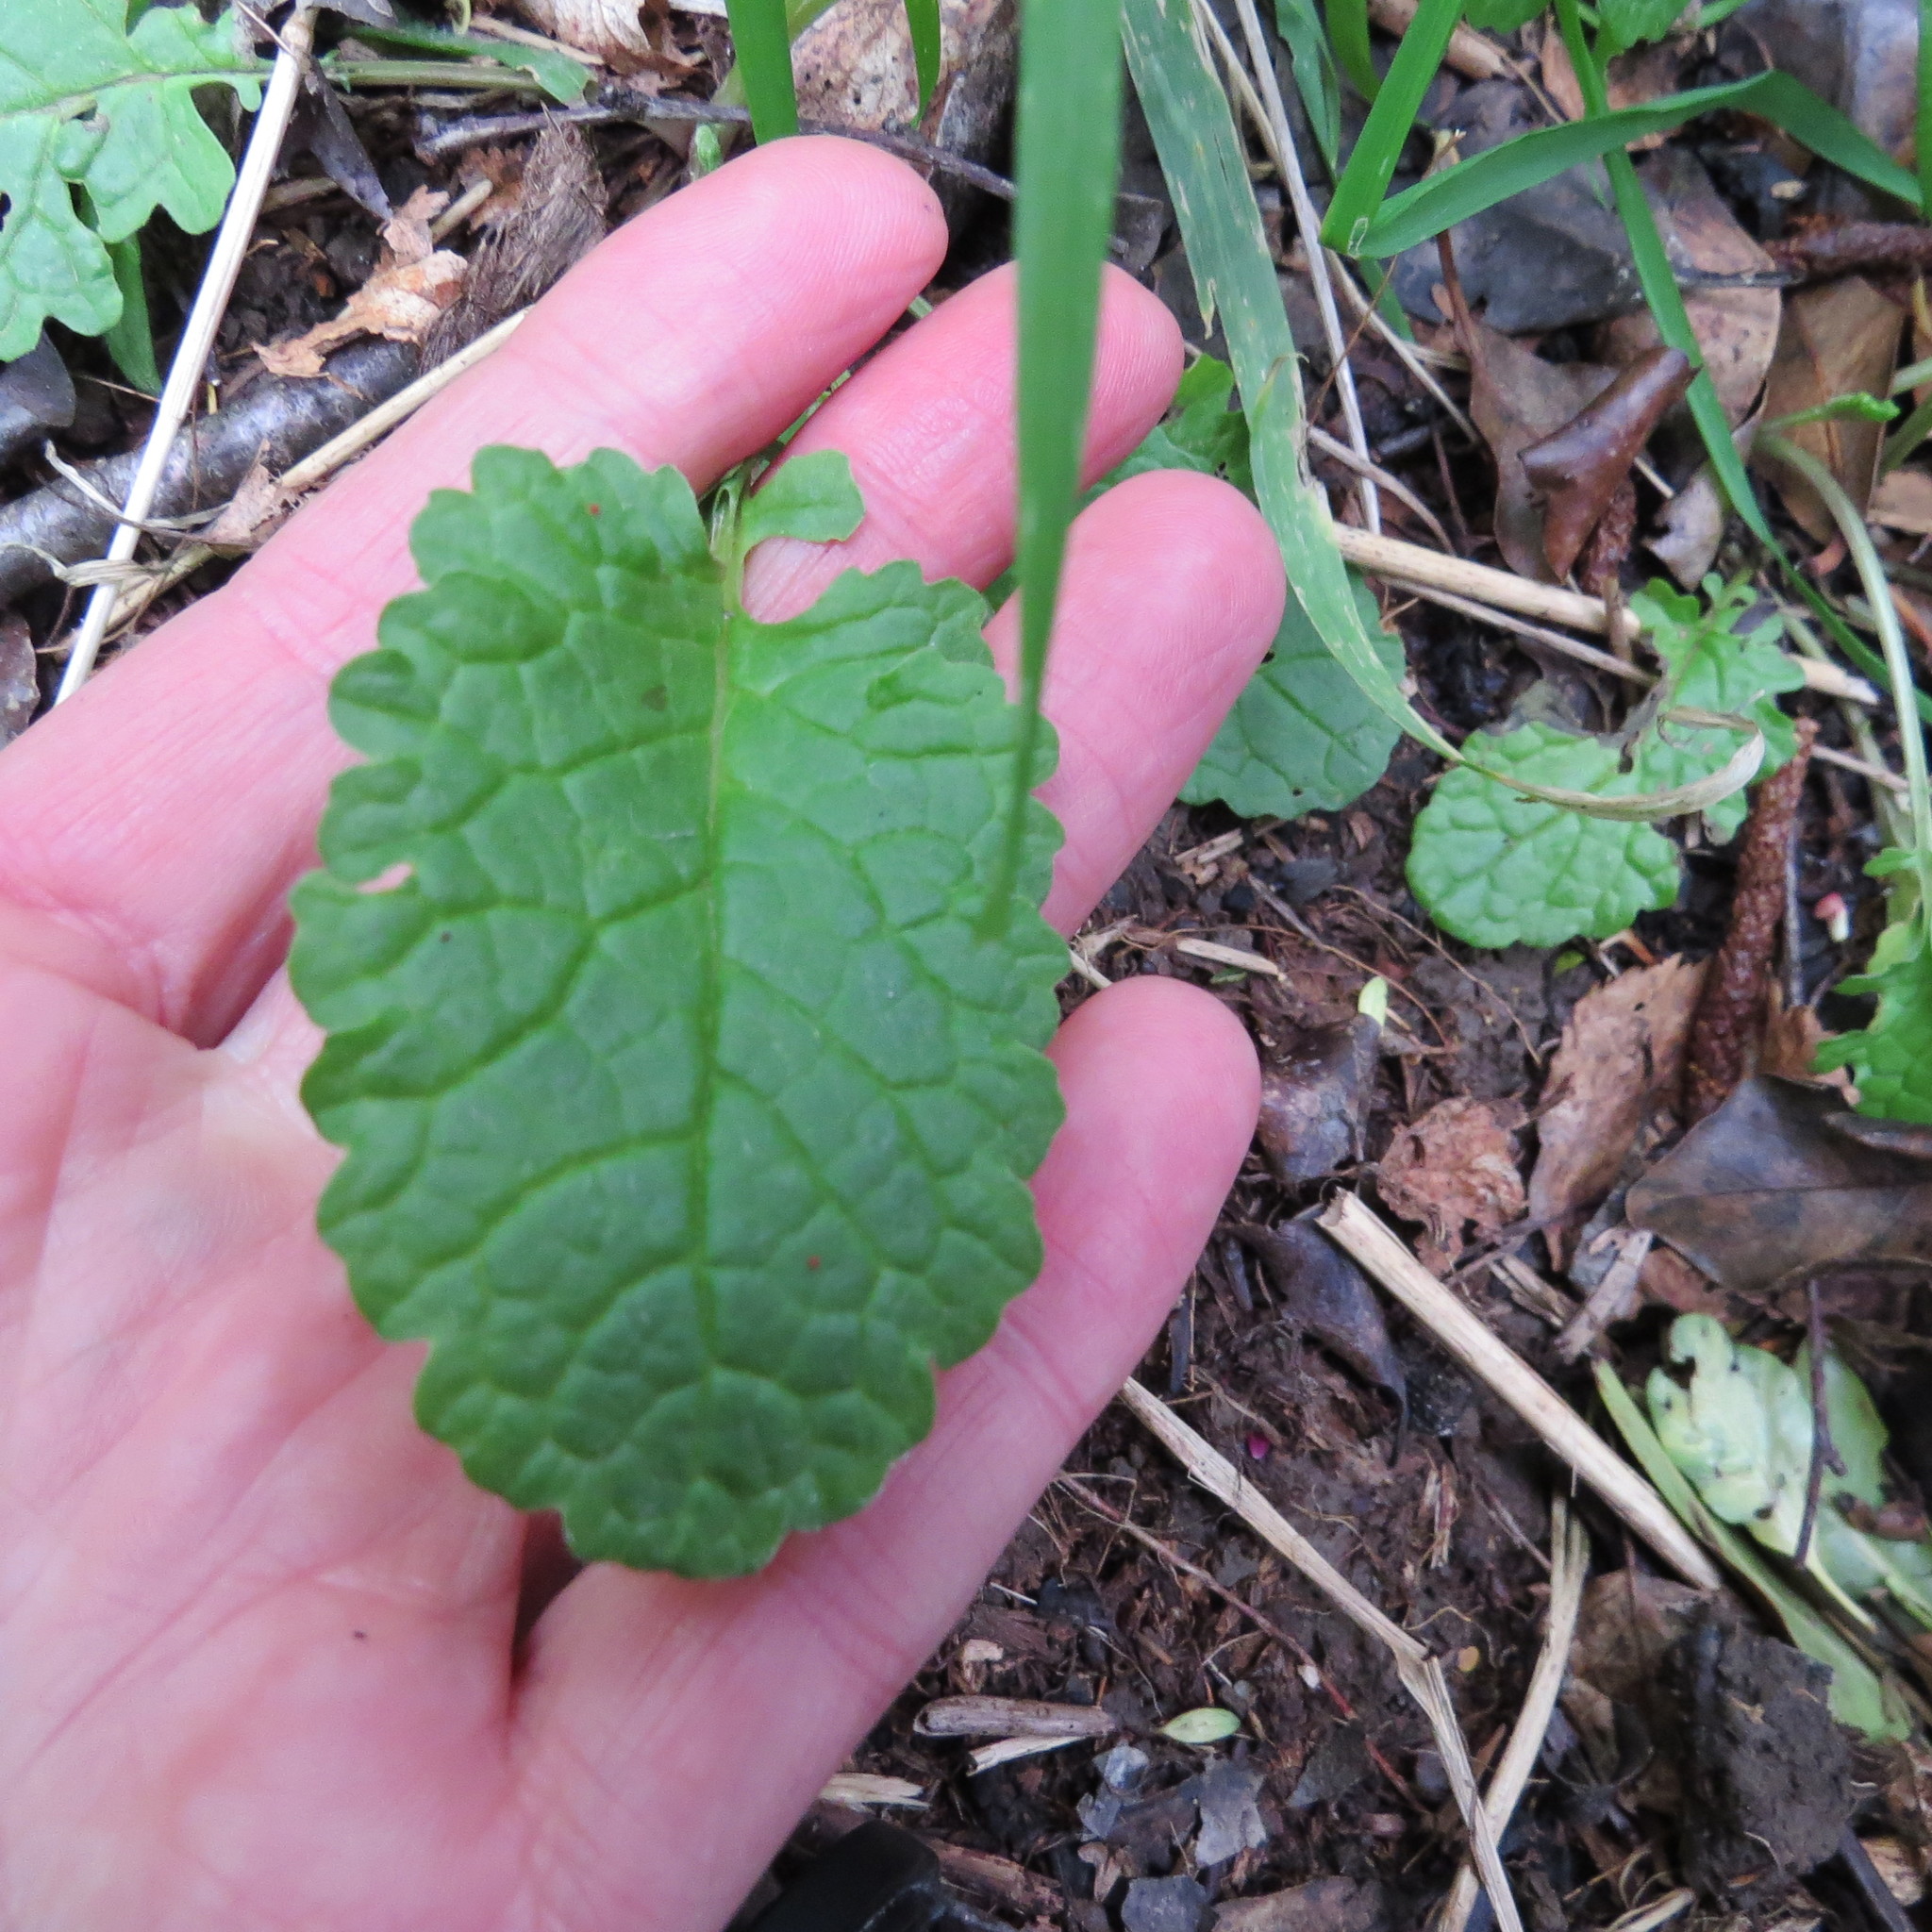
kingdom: Plantae
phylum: Tracheophyta
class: Magnoliopsida
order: Asterales
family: Asteraceae
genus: Jacobaea
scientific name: Jacobaea vulgaris
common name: Stinking willie
